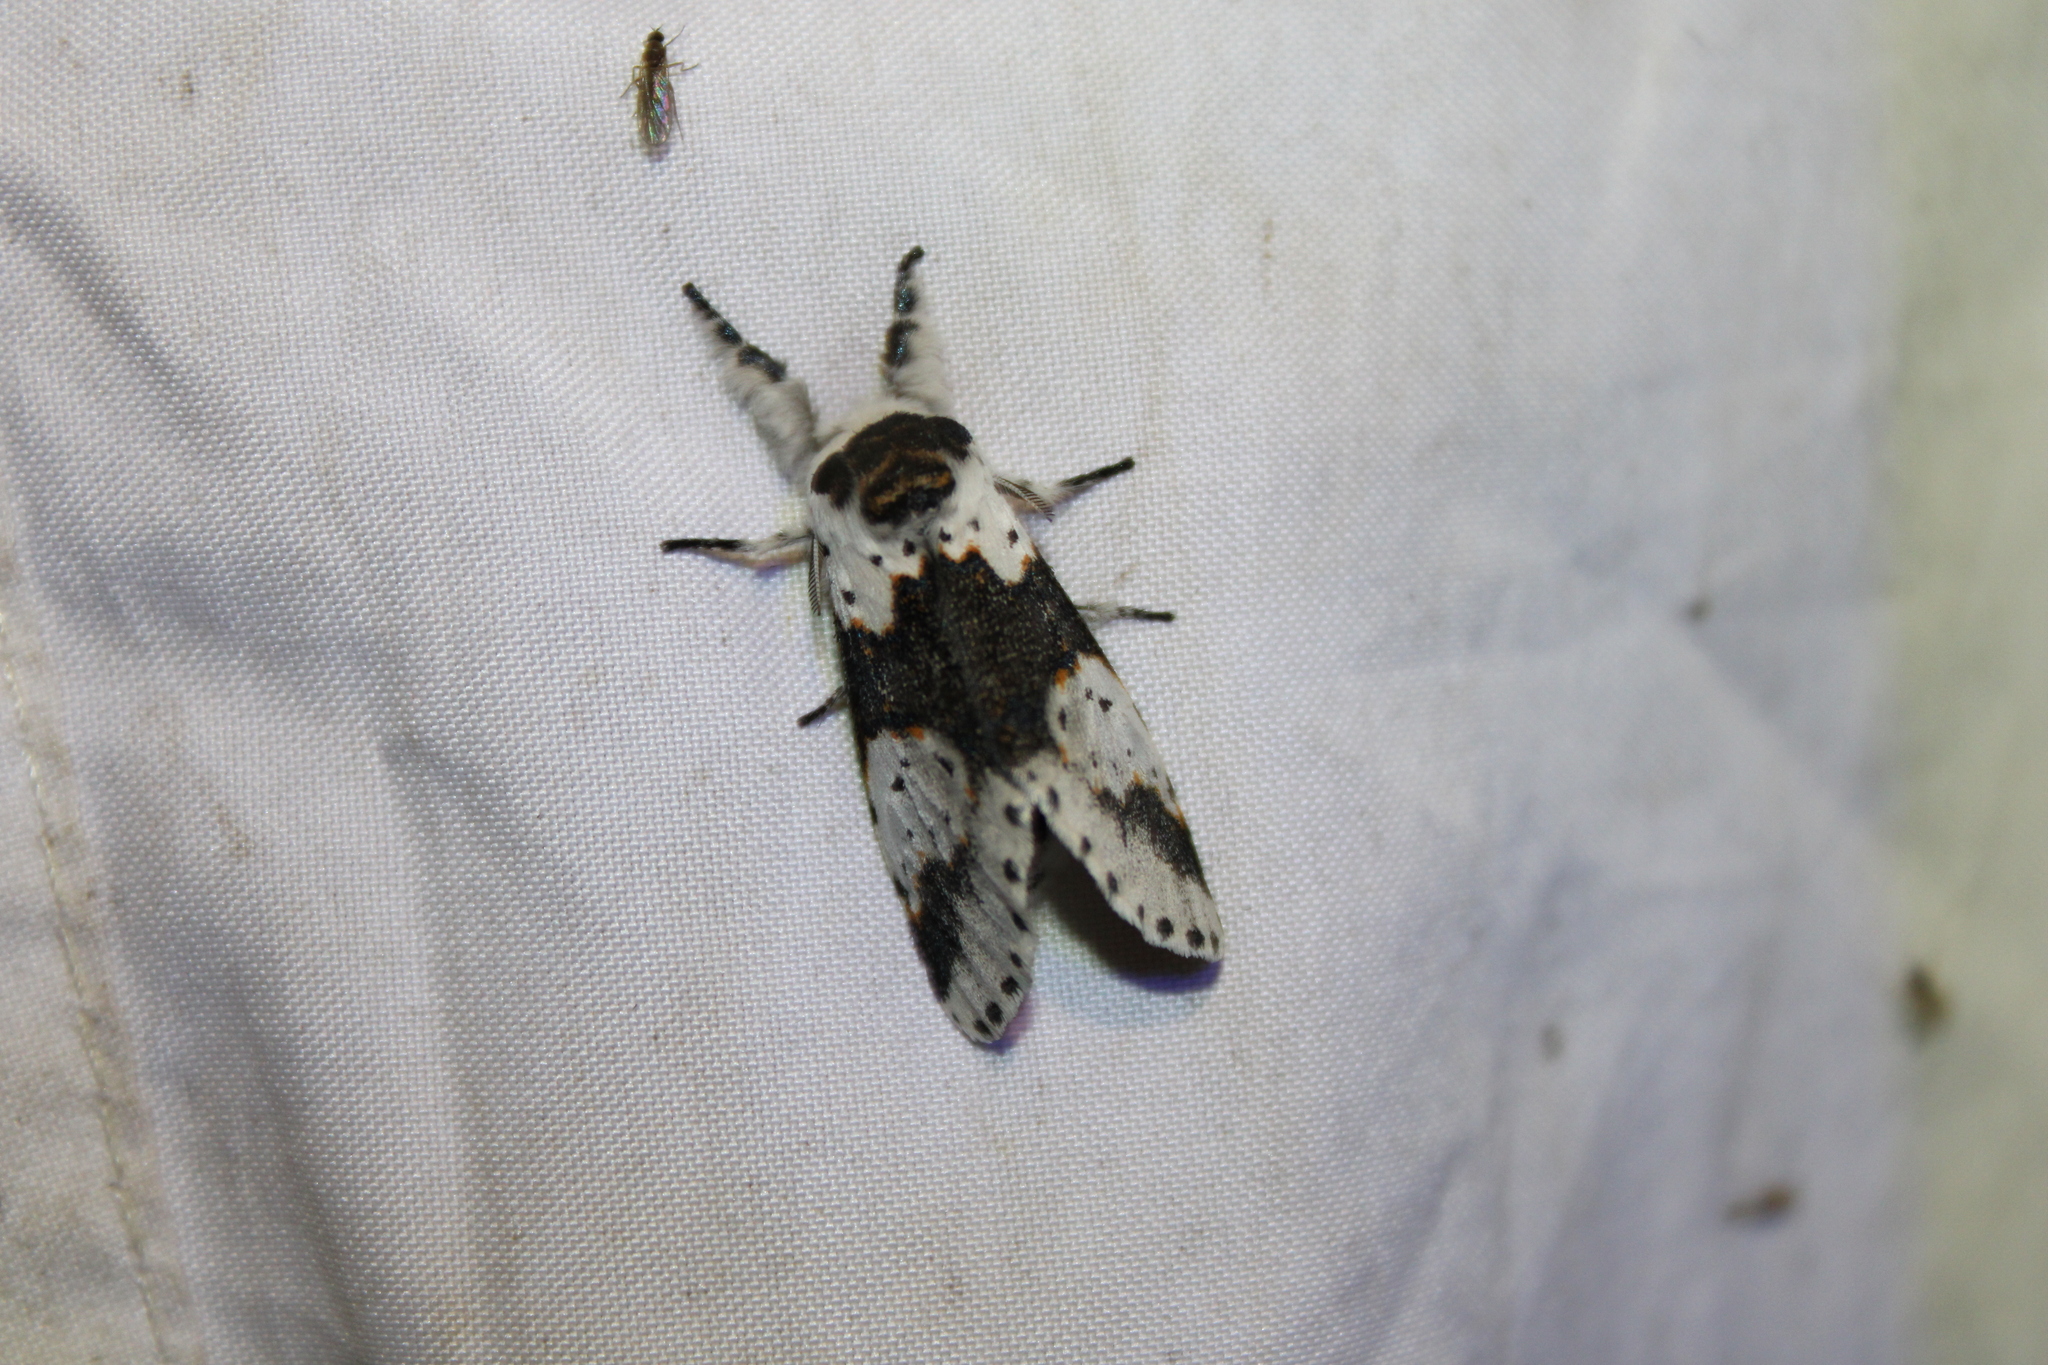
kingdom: Animalia
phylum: Arthropoda
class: Insecta
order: Lepidoptera
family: Notodontidae
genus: Furcula
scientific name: Furcula borealis
